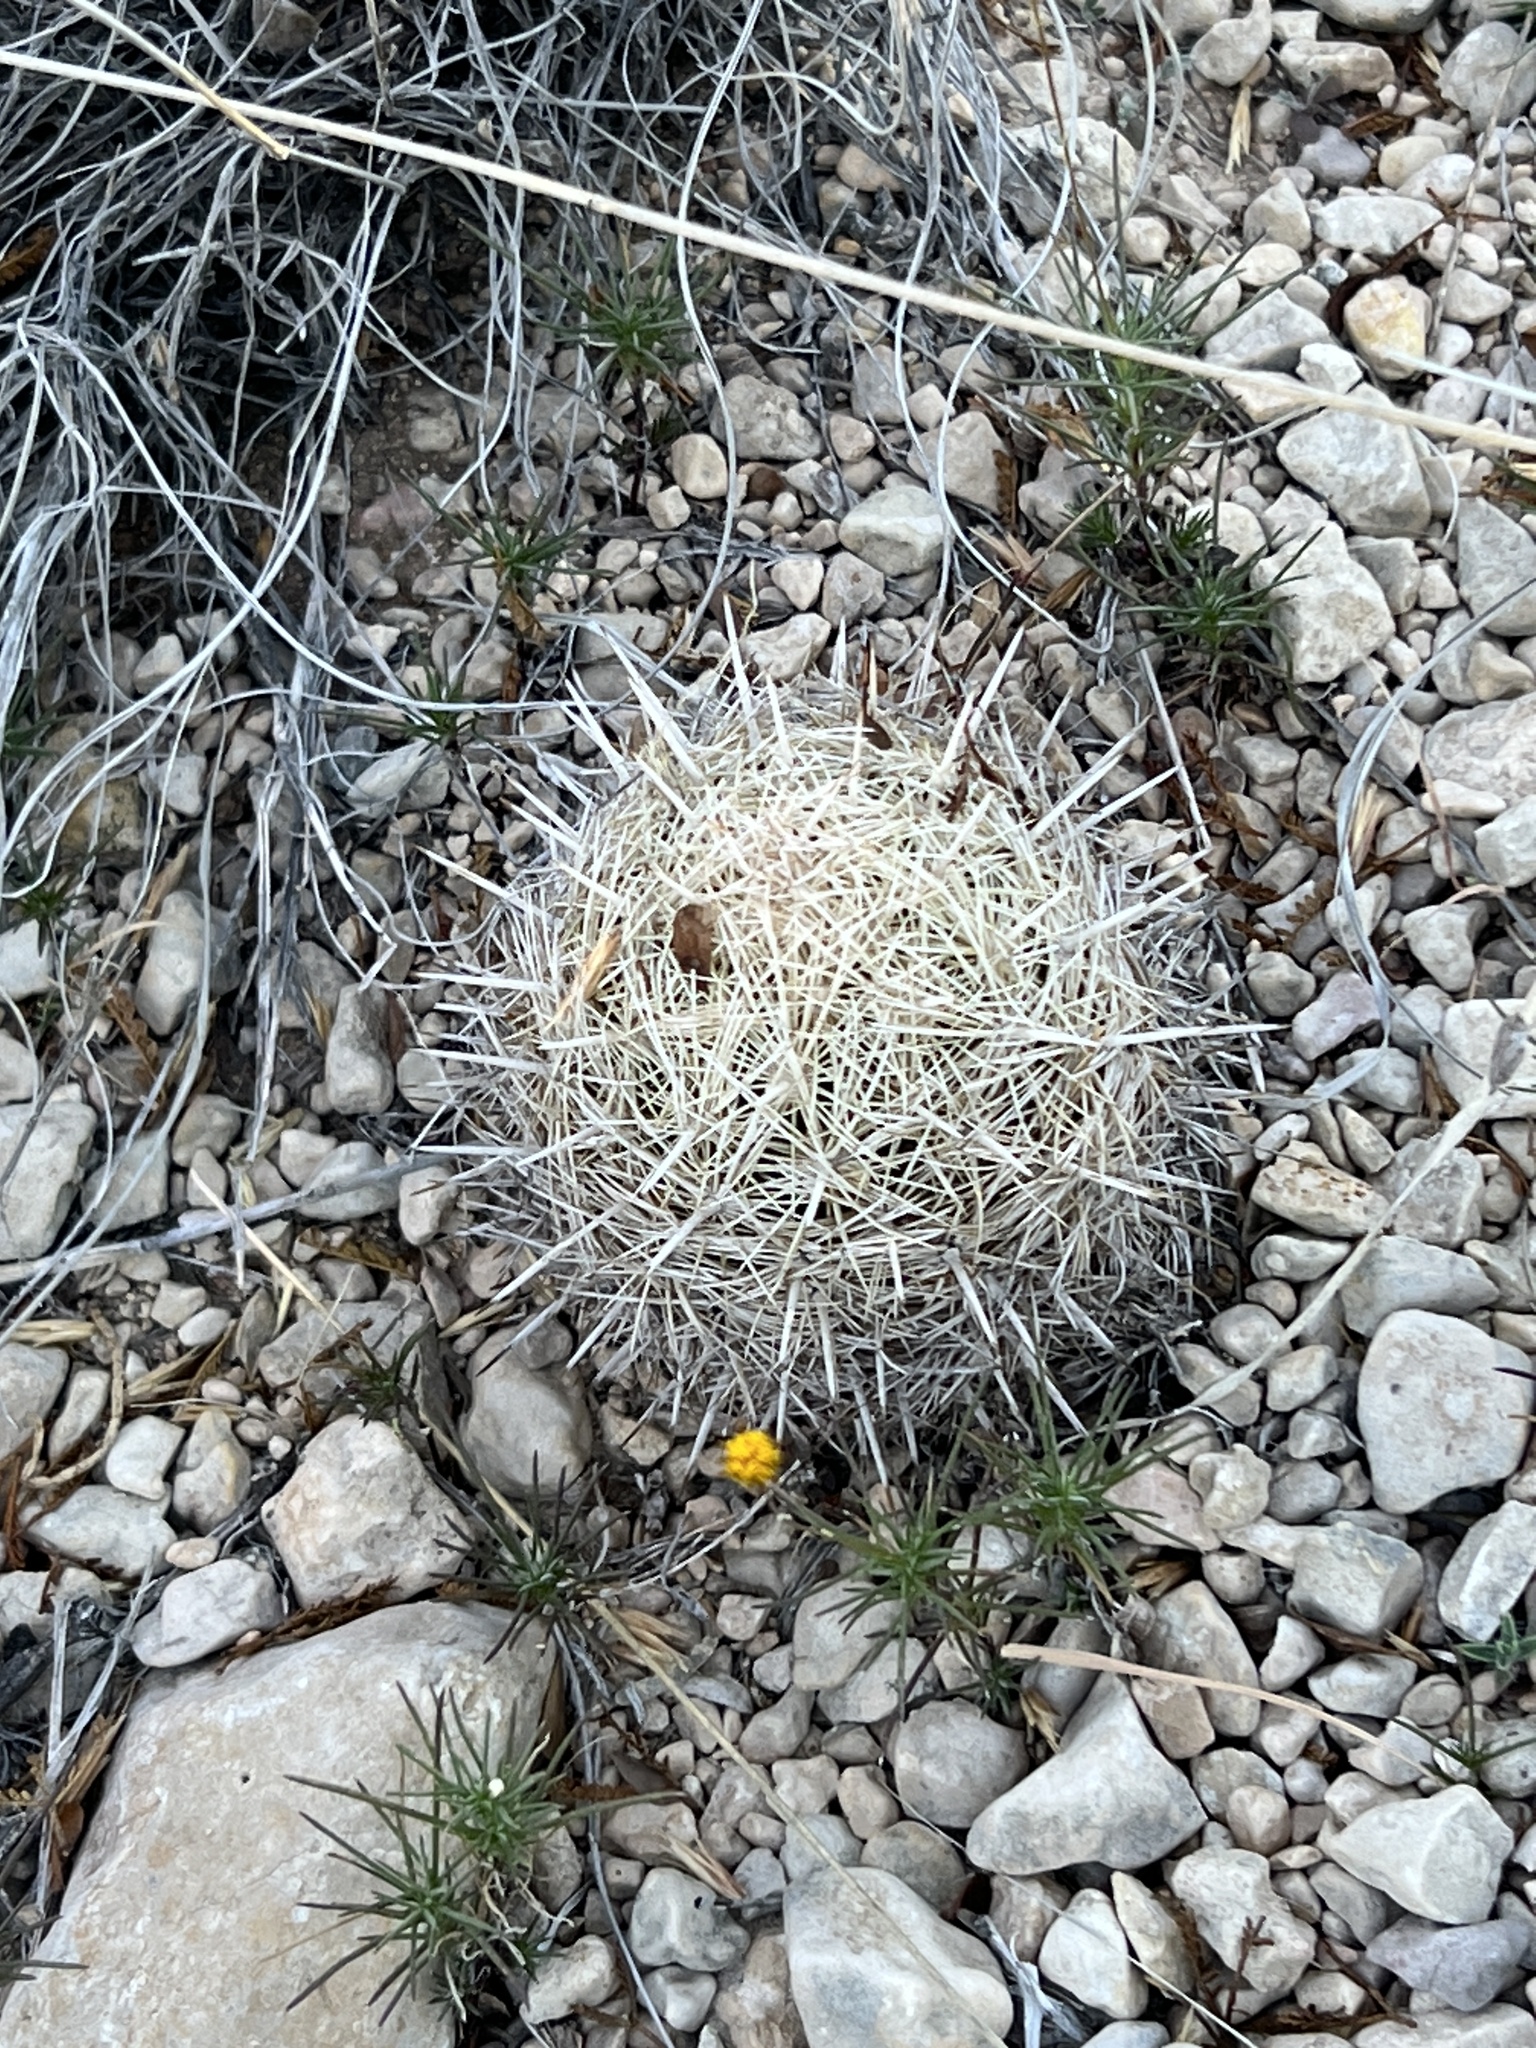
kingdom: Plantae
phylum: Tracheophyta
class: Magnoliopsida
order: Caryophyllales
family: Cactaceae
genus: Coryphantha
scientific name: Coryphantha echinus
